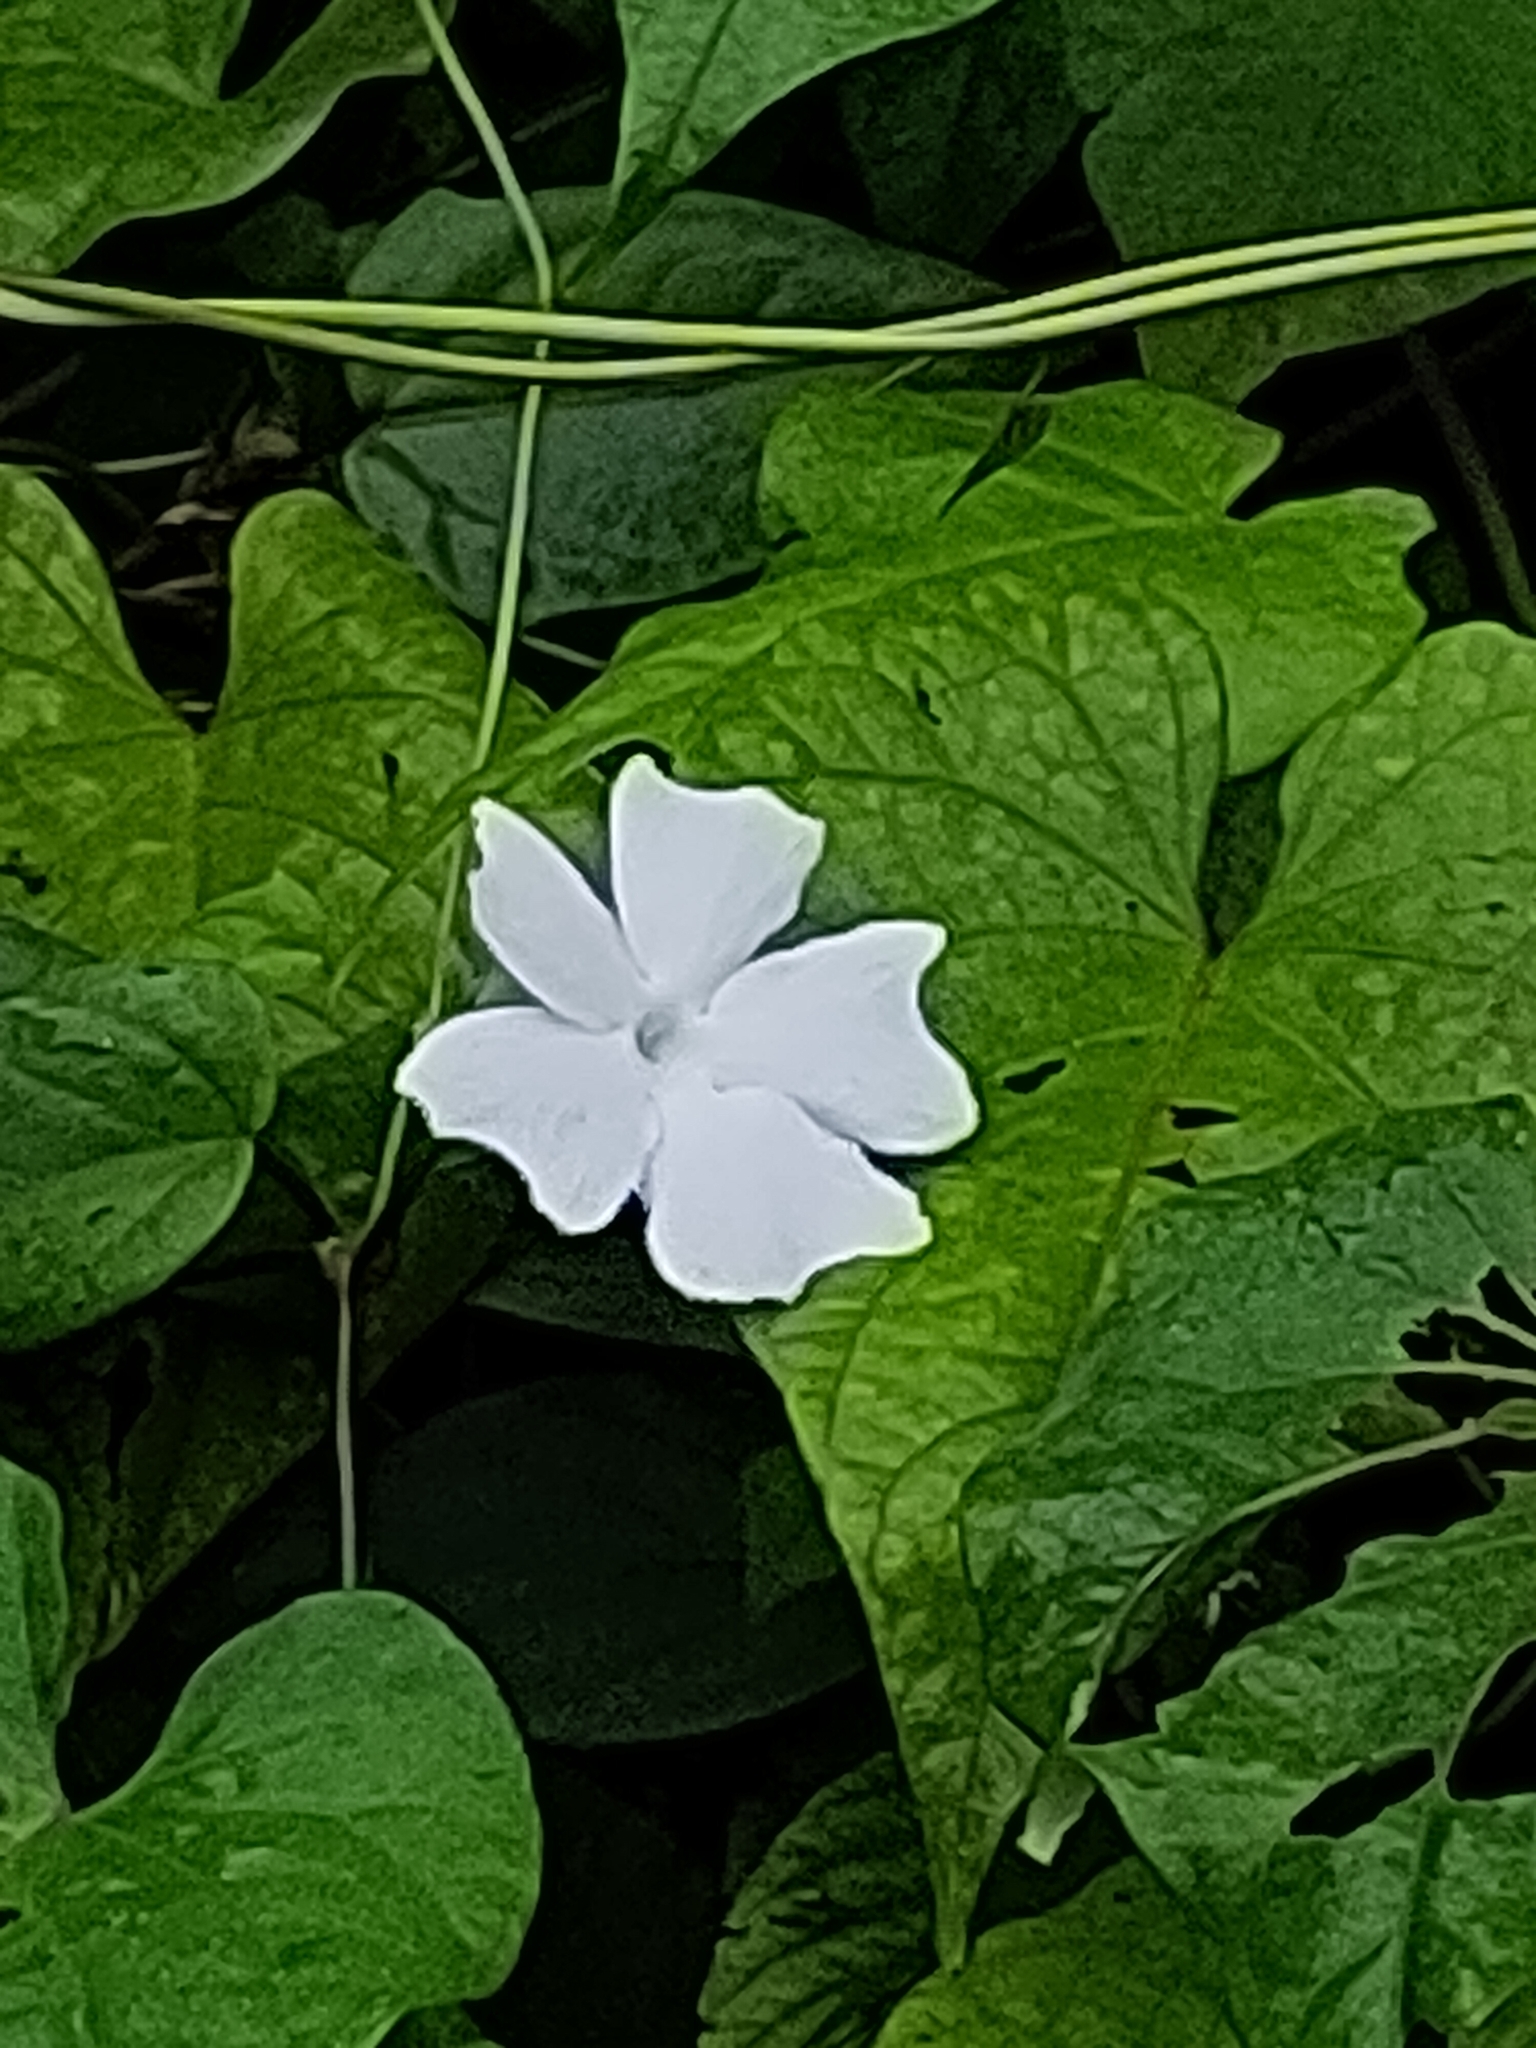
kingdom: Plantae
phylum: Tracheophyta
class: Magnoliopsida
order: Lamiales
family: Acanthaceae
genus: Thunbergia
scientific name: Thunbergia fragrans
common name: Whitelady
